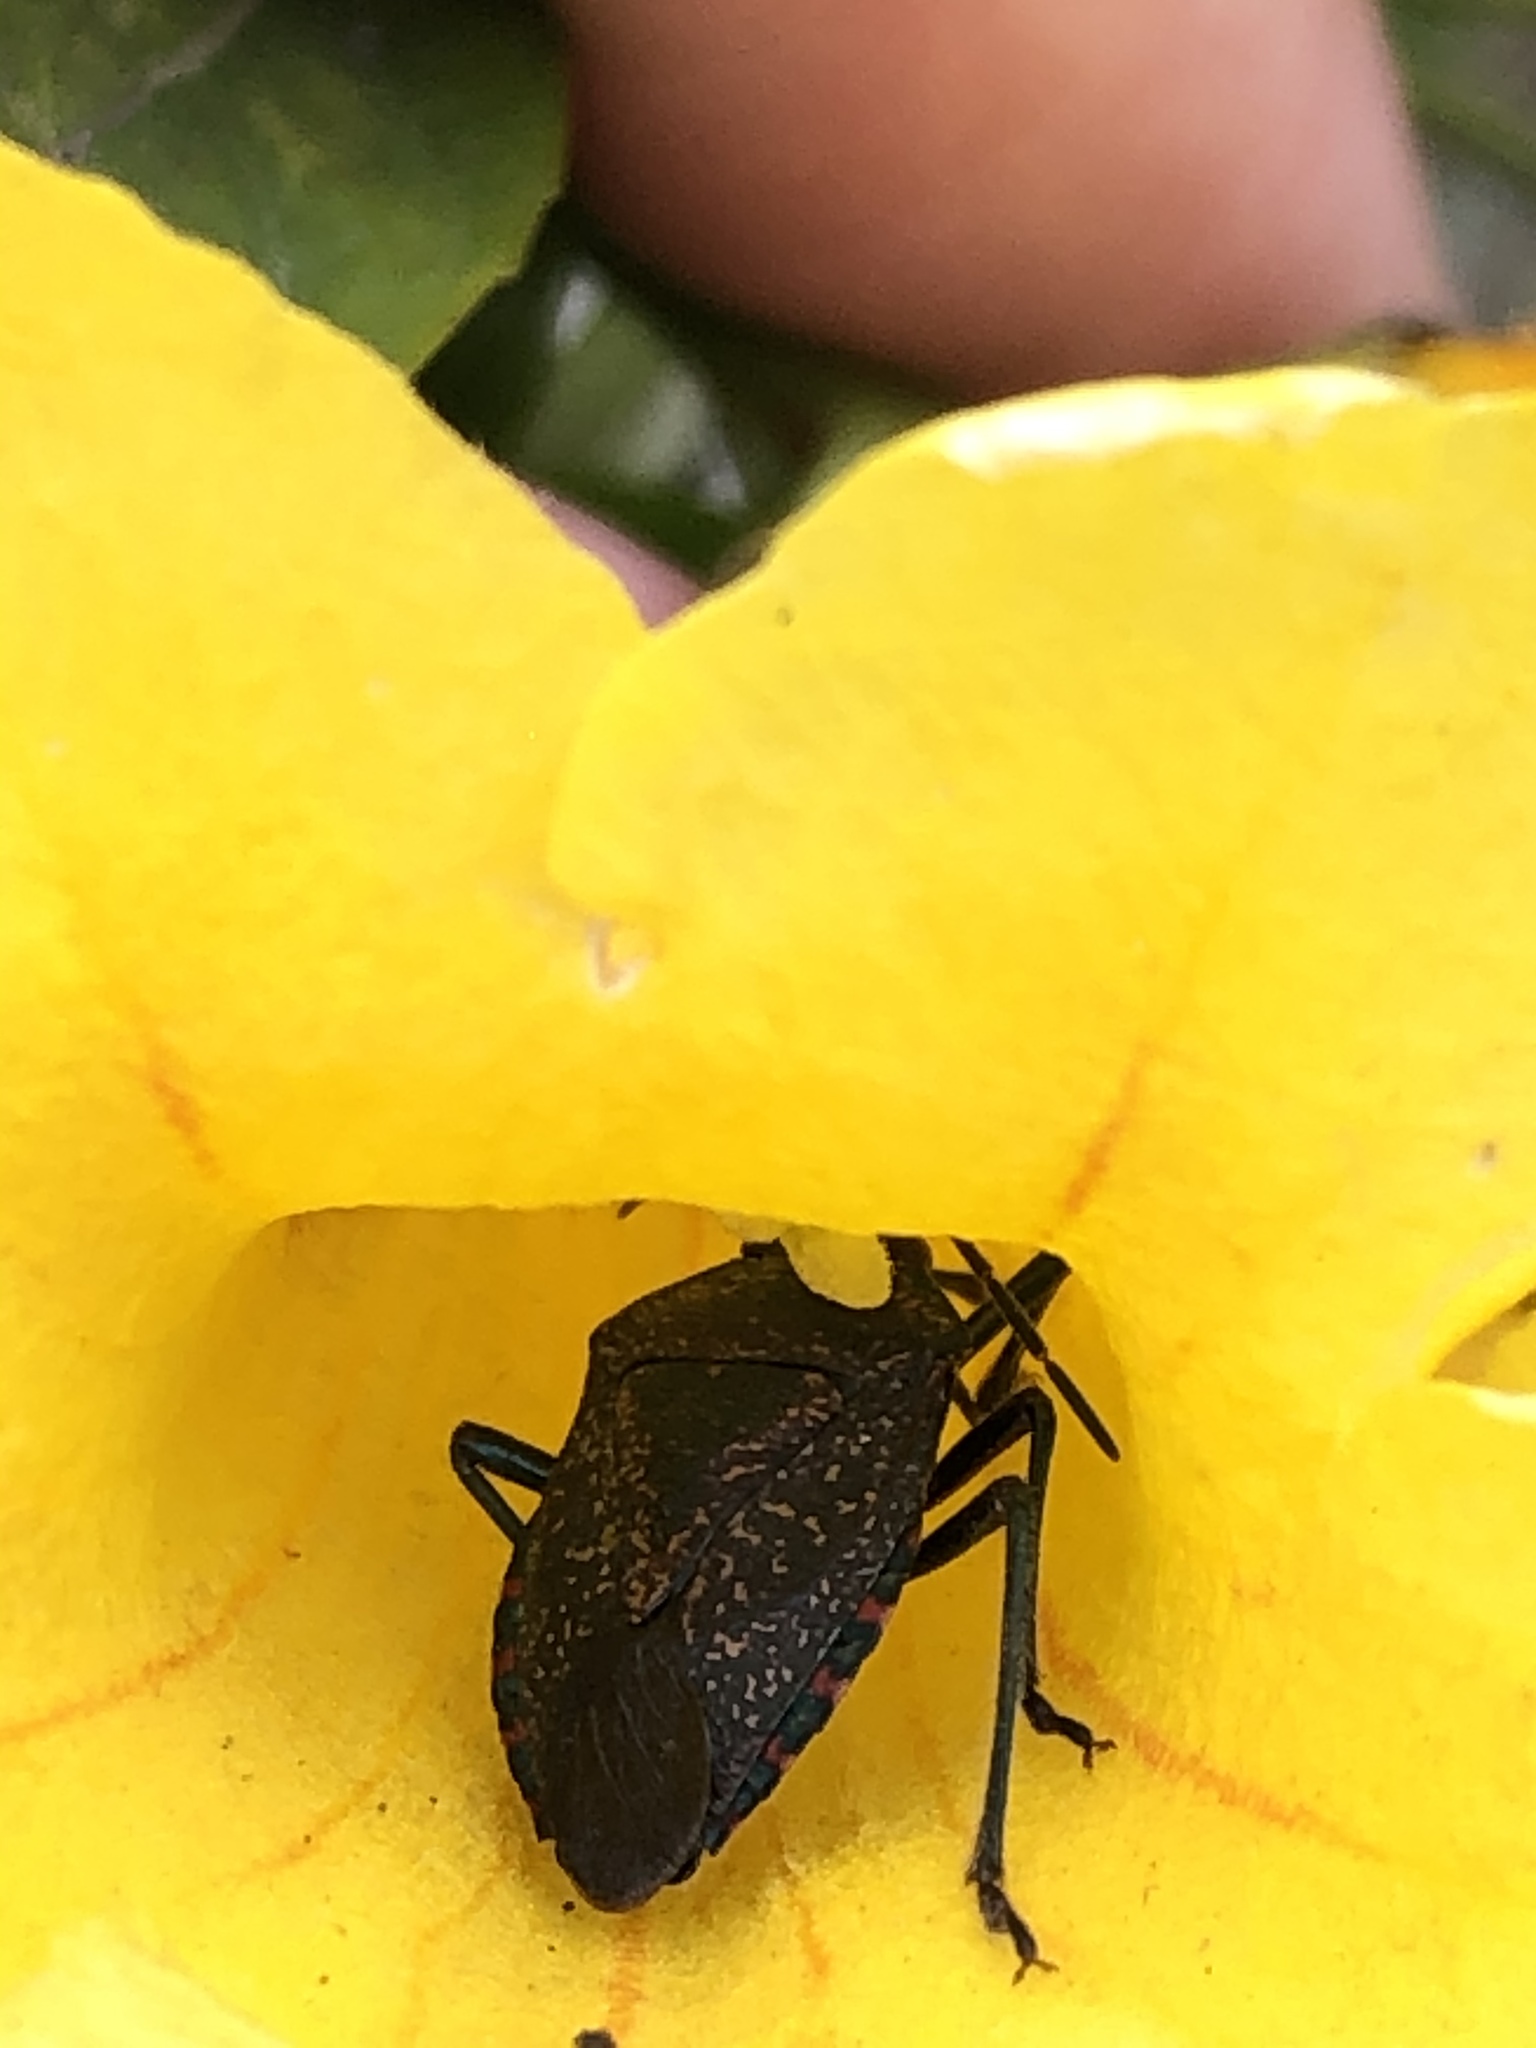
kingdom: Animalia
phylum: Arthropoda
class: Insecta
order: Hemiptera
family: Pentatomidae
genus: Pellaea
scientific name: Pellaea stictica
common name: Stink bug
